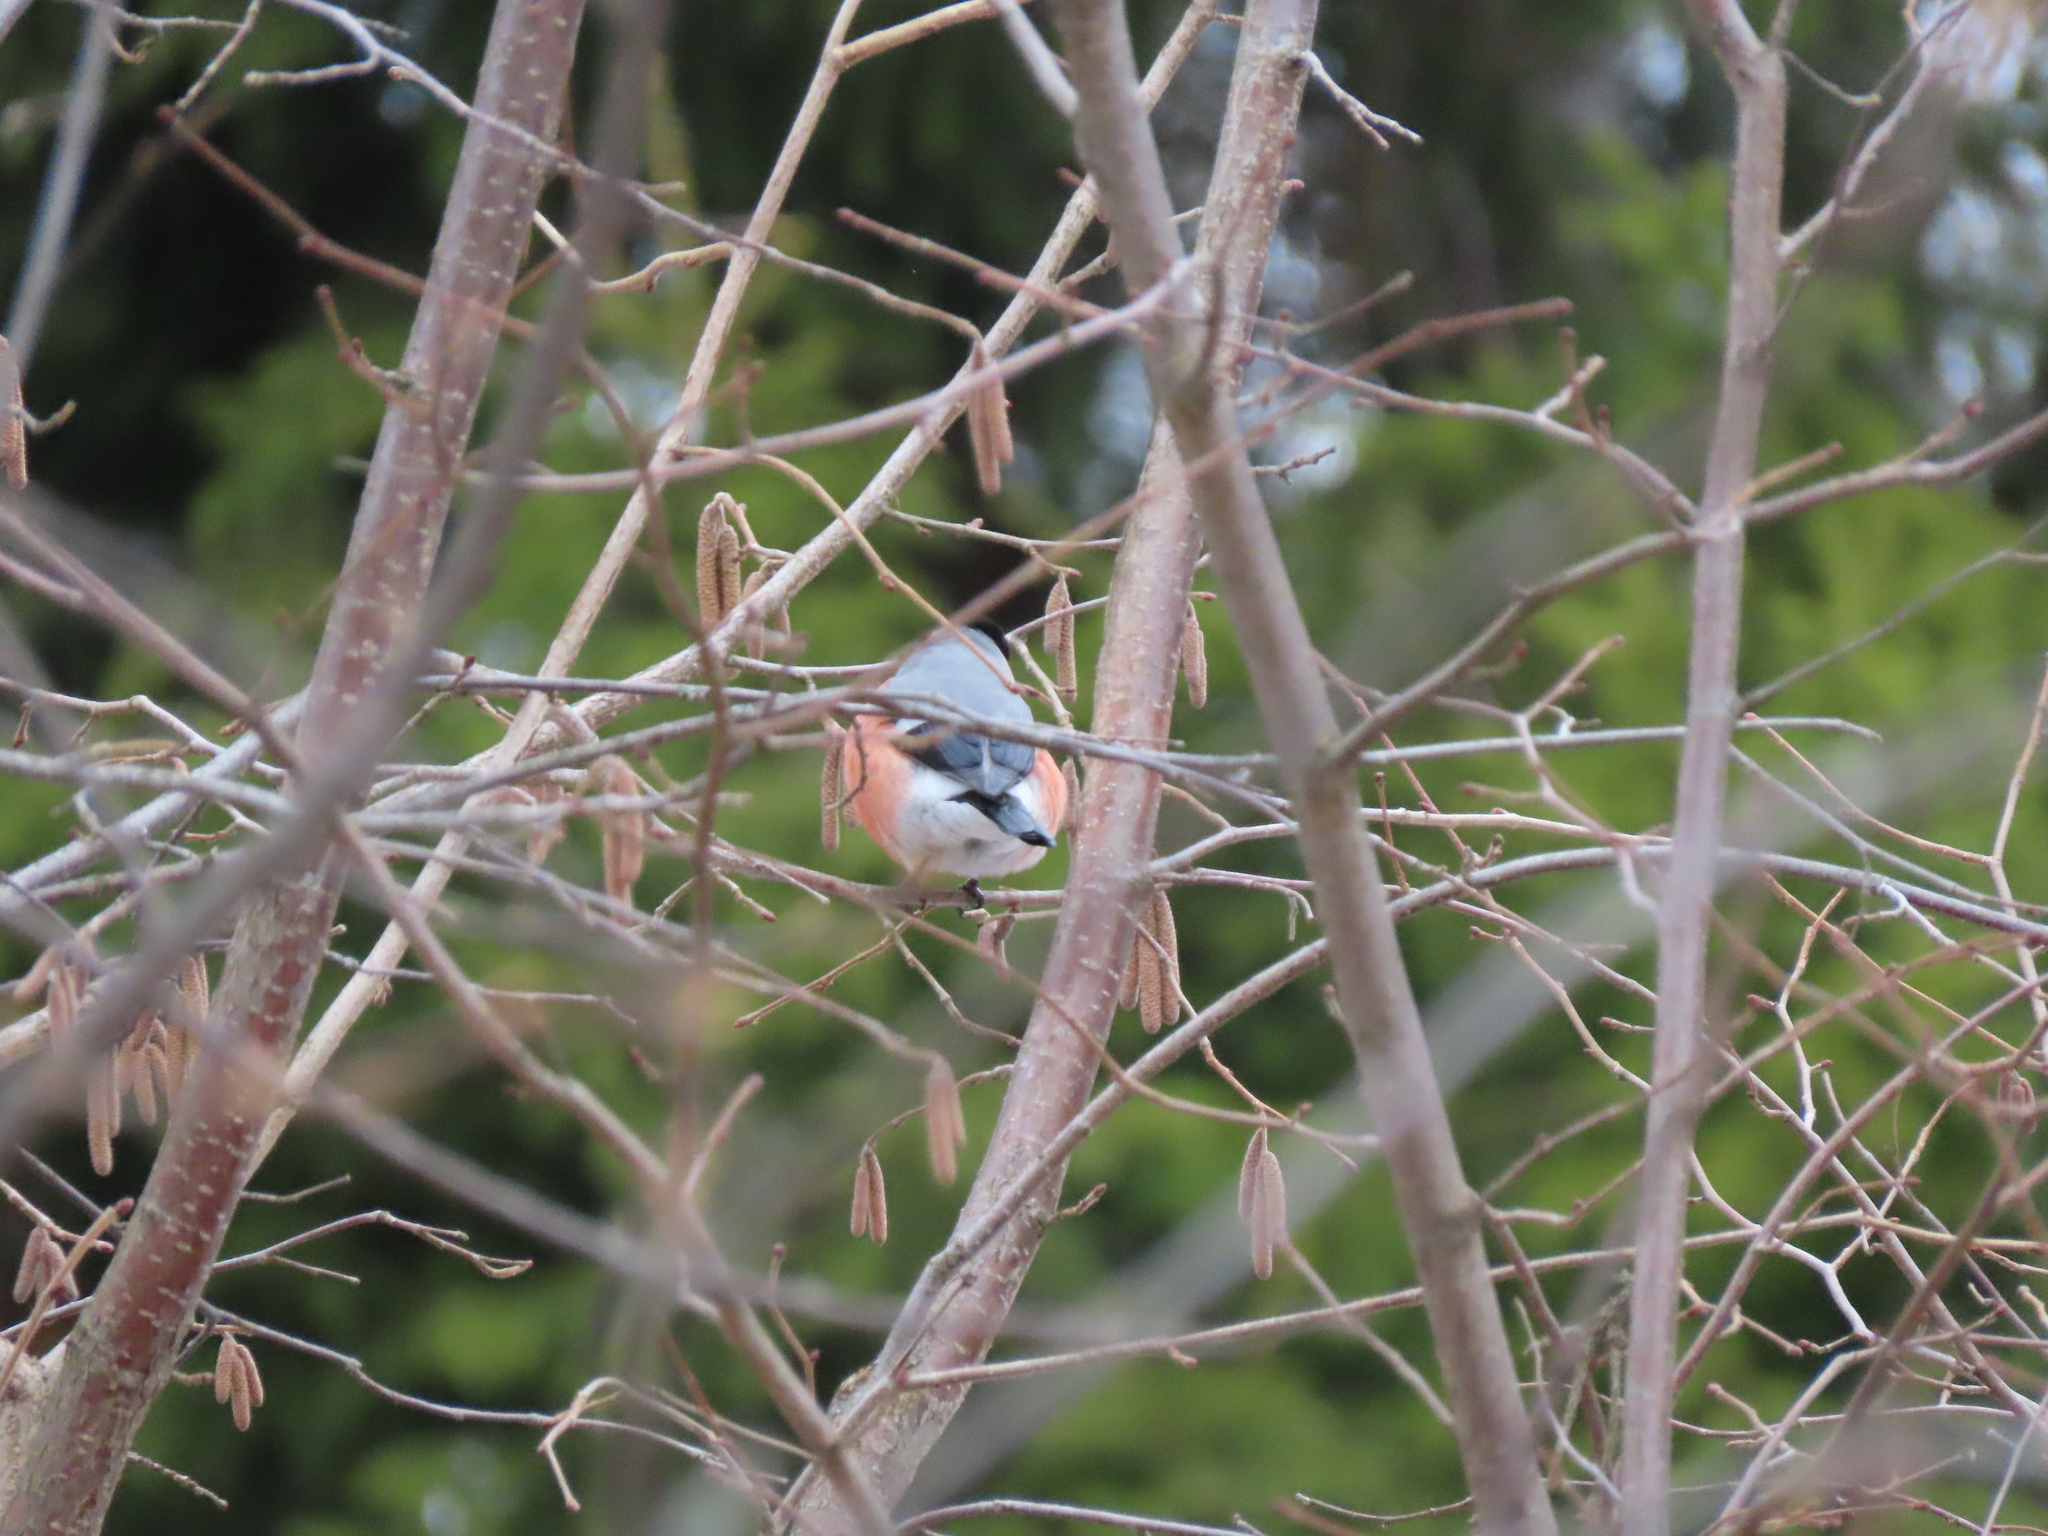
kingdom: Animalia
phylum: Chordata
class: Aves
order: Passeriformes
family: Fringillidae
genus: Pyrrhula
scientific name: Pyrrhula pyrrhula
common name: Eurasian bullfinch
